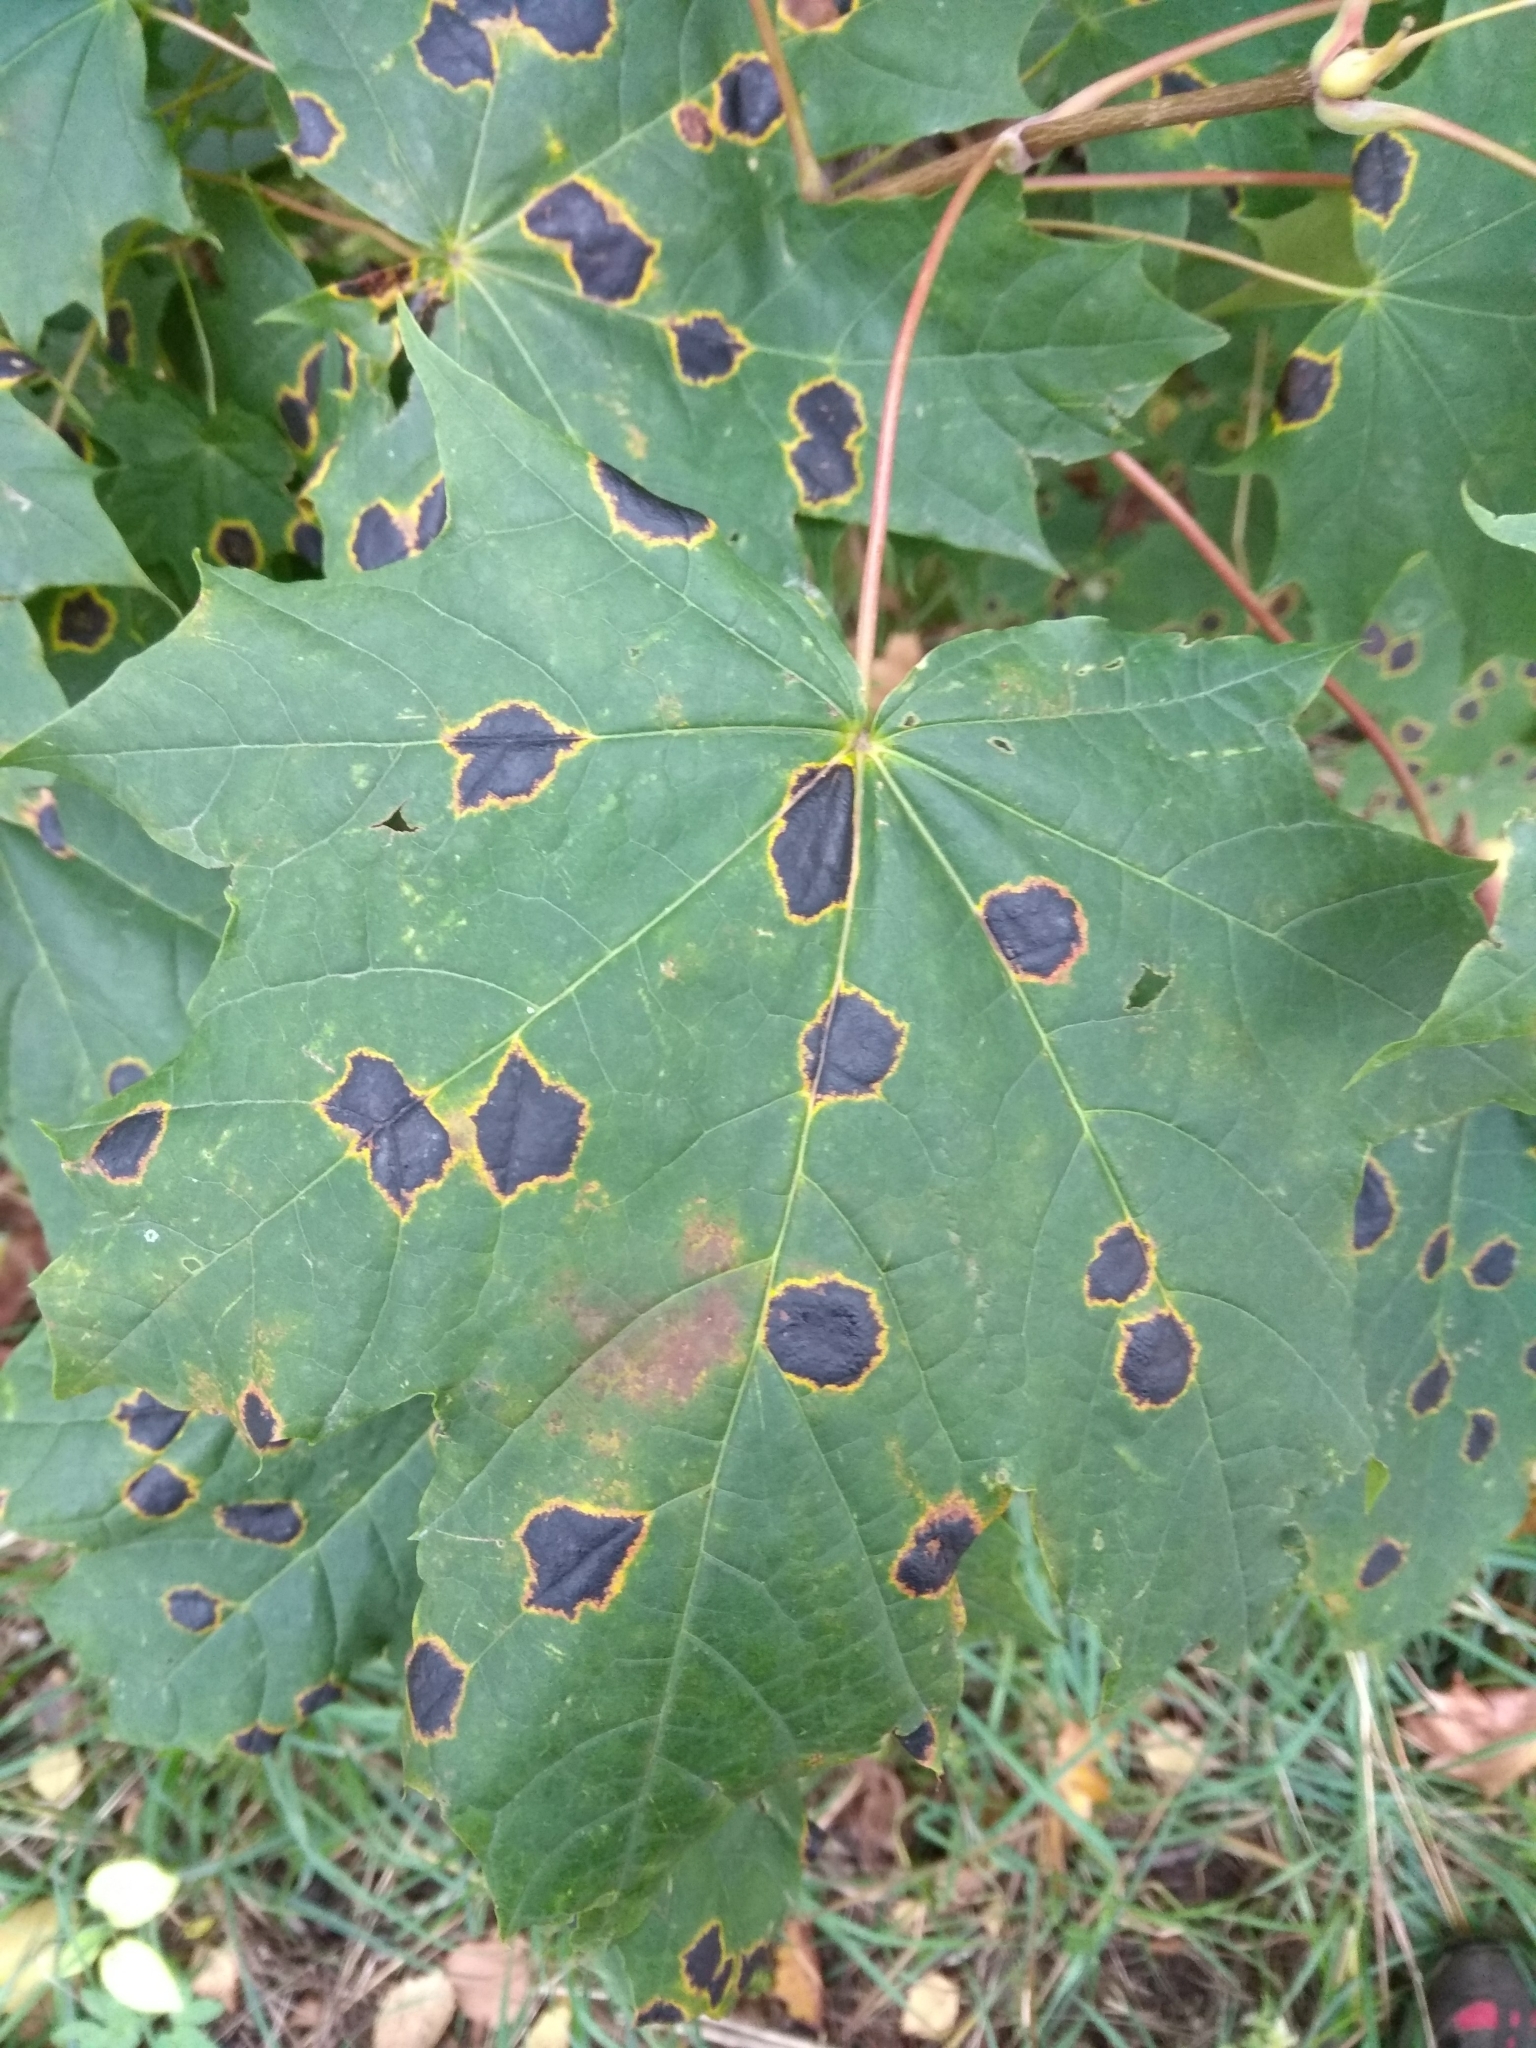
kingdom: Fungi
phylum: Ascomycota
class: Leotiomycetes
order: Rhytismatales
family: Rhytismataceae
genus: Rhytisma
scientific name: Rhytisma acerinum
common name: European tar spot
